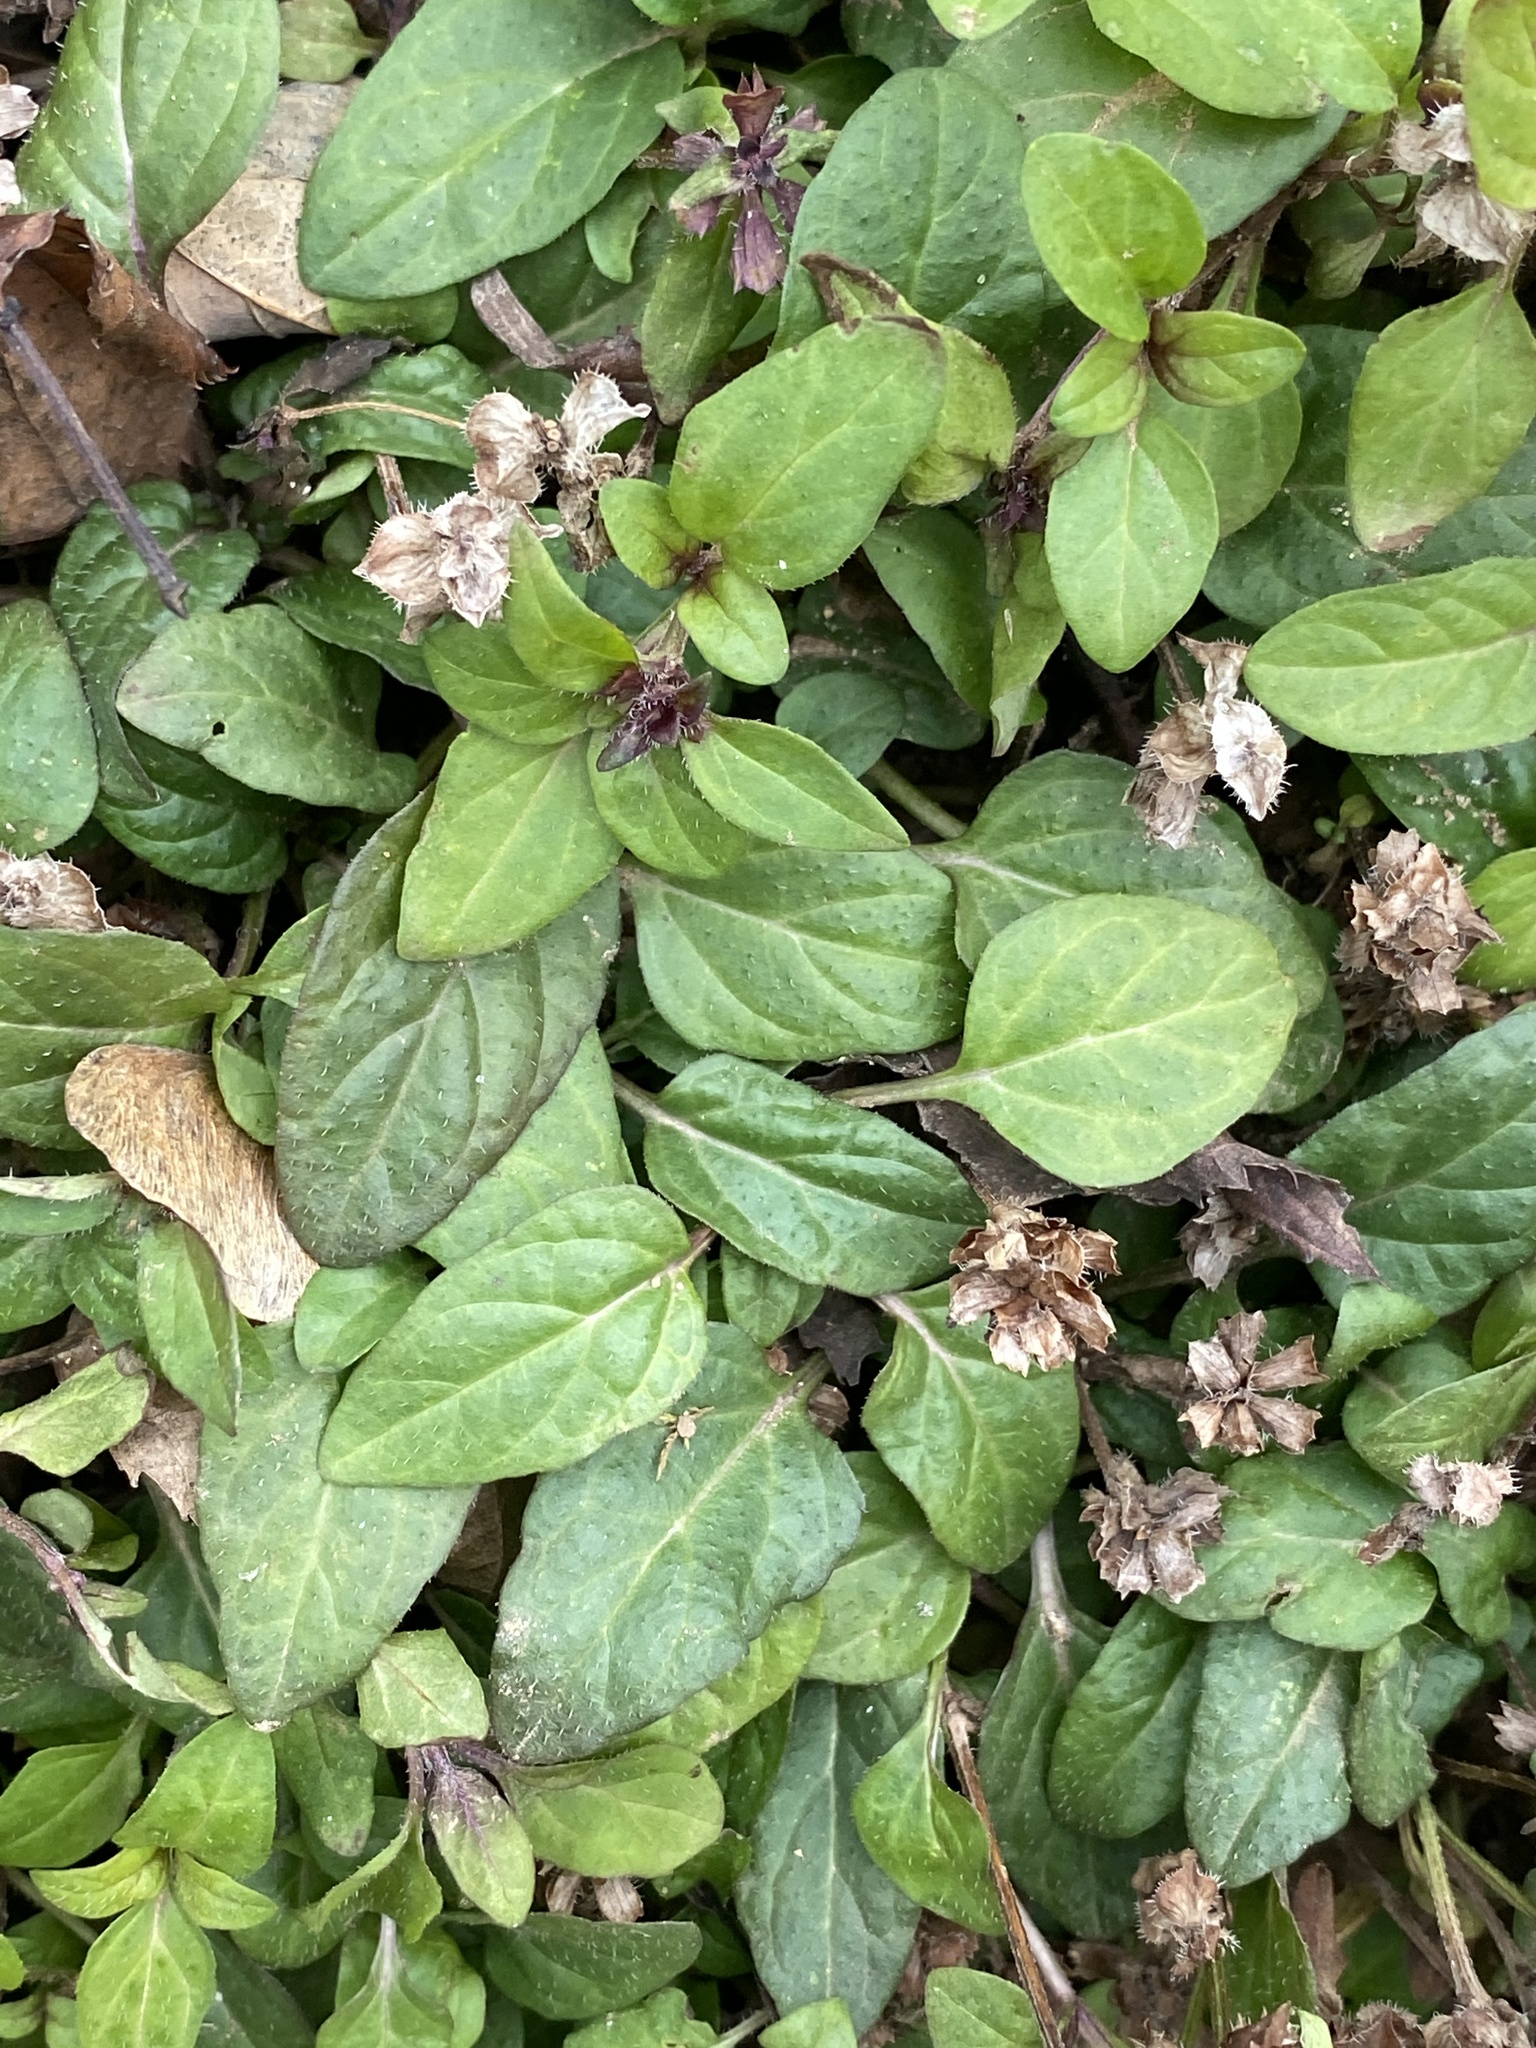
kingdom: Plantae
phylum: Tracheophyta
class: Magnoliopsida
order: Lamiales
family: Lamiaceae
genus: Prunella
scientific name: Prunella vulgaris
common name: Heal-all
